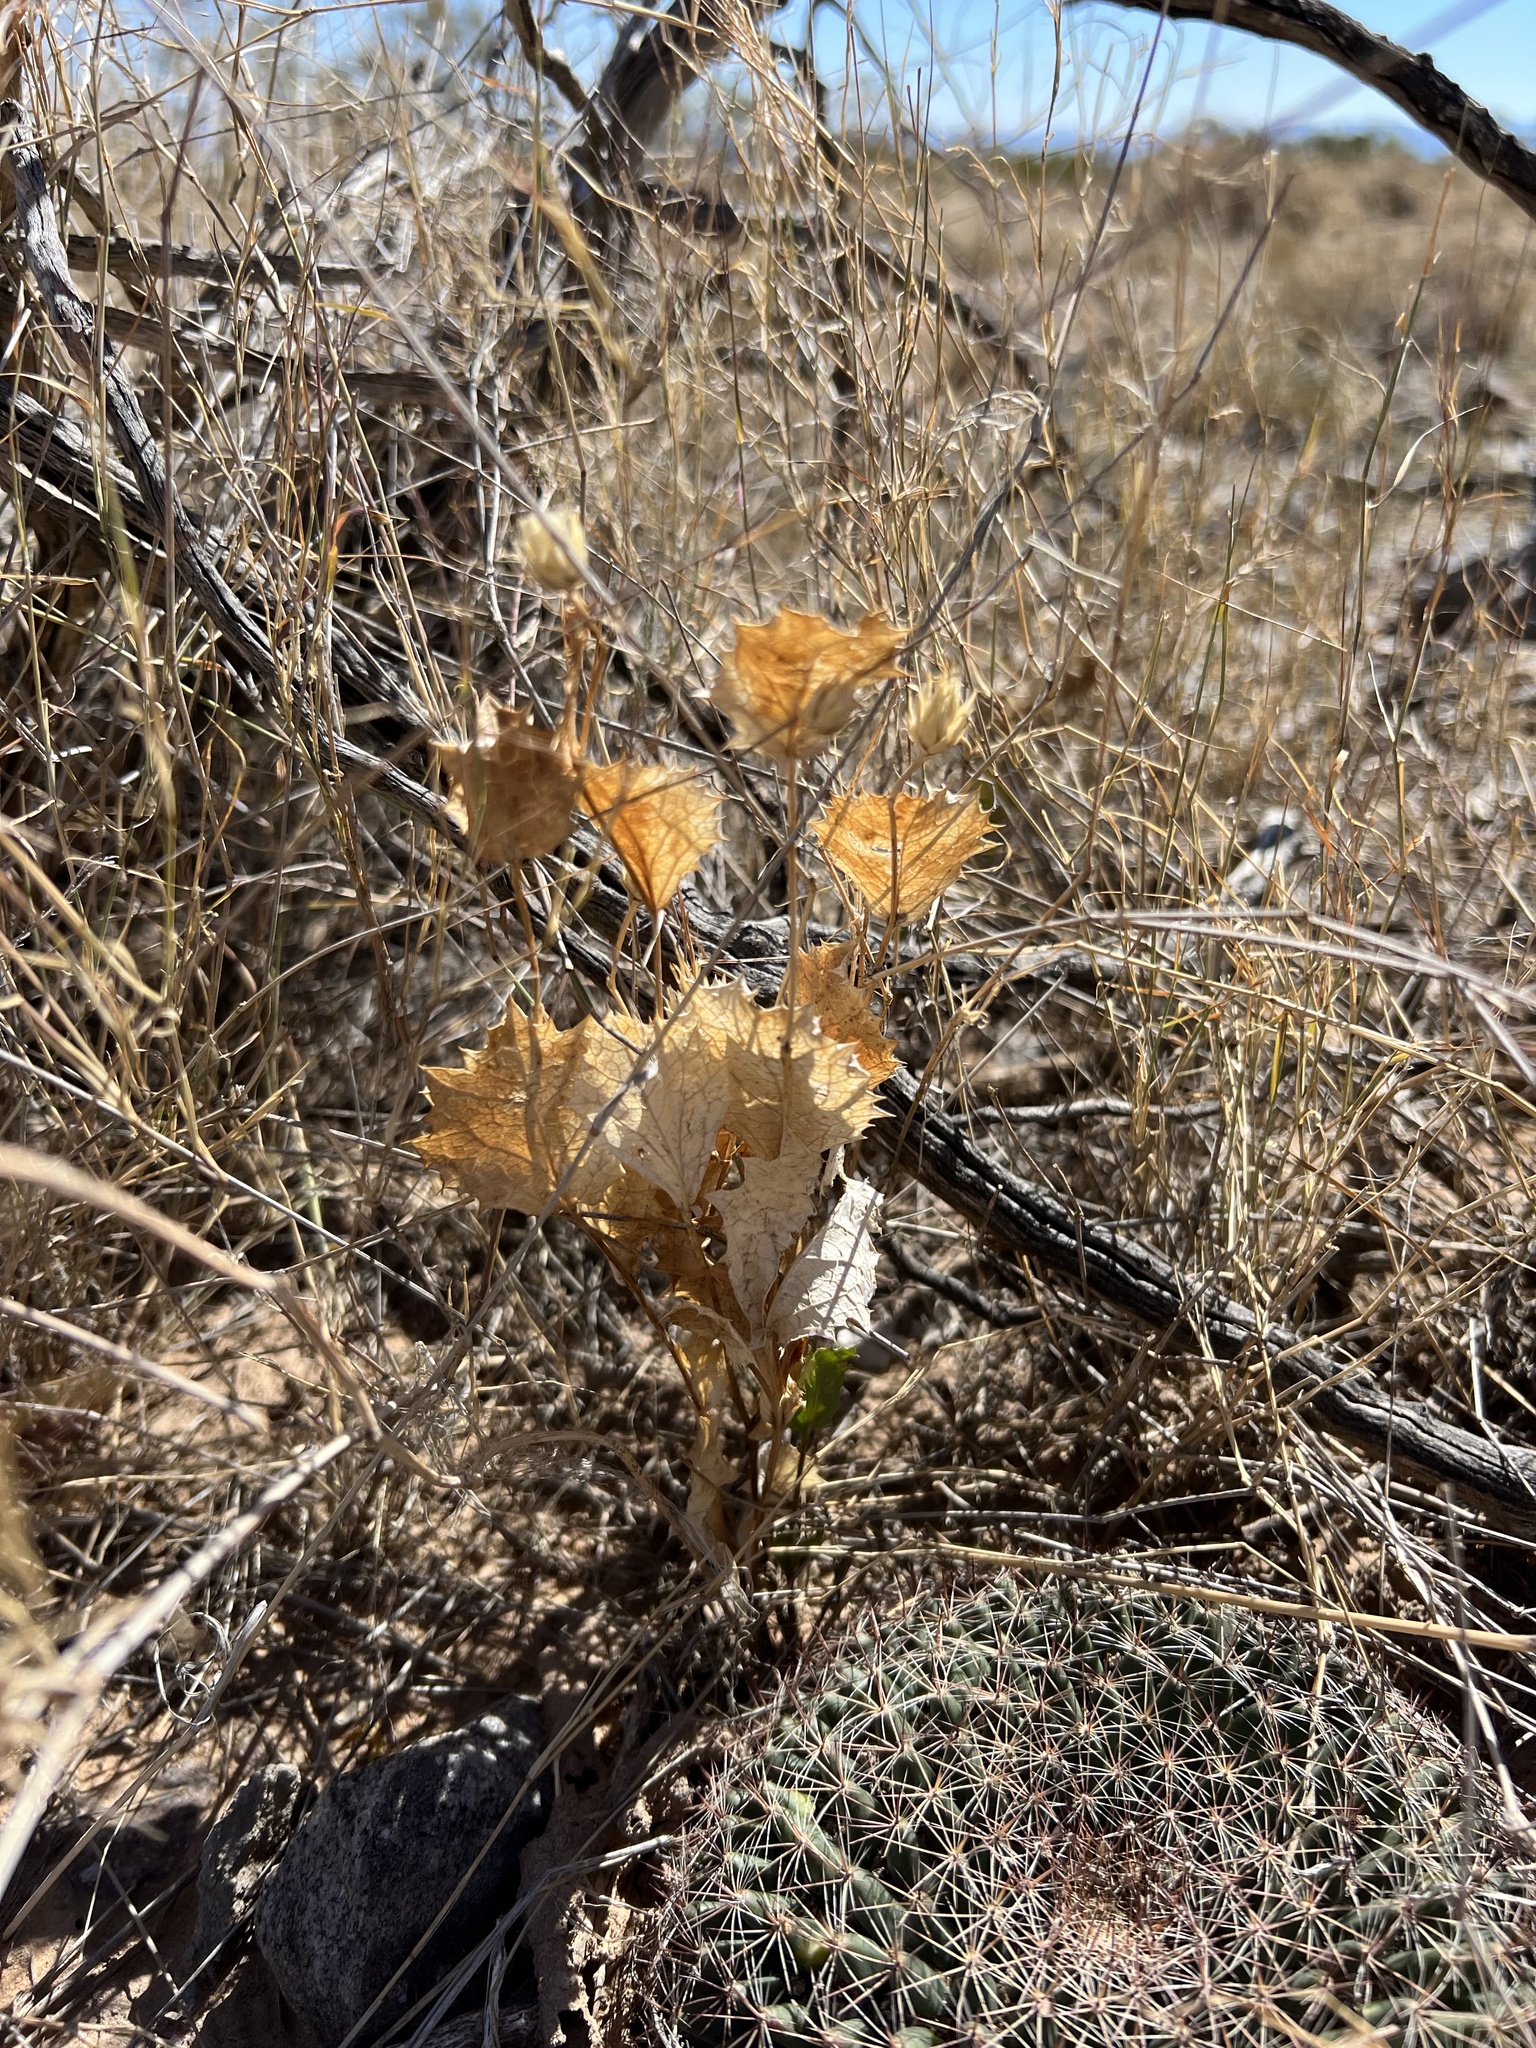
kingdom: Plantae
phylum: Tracheophyta
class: Magnoliopsida
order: Asterales
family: Asteraceae
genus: Acourtia
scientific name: Acourtia nana
